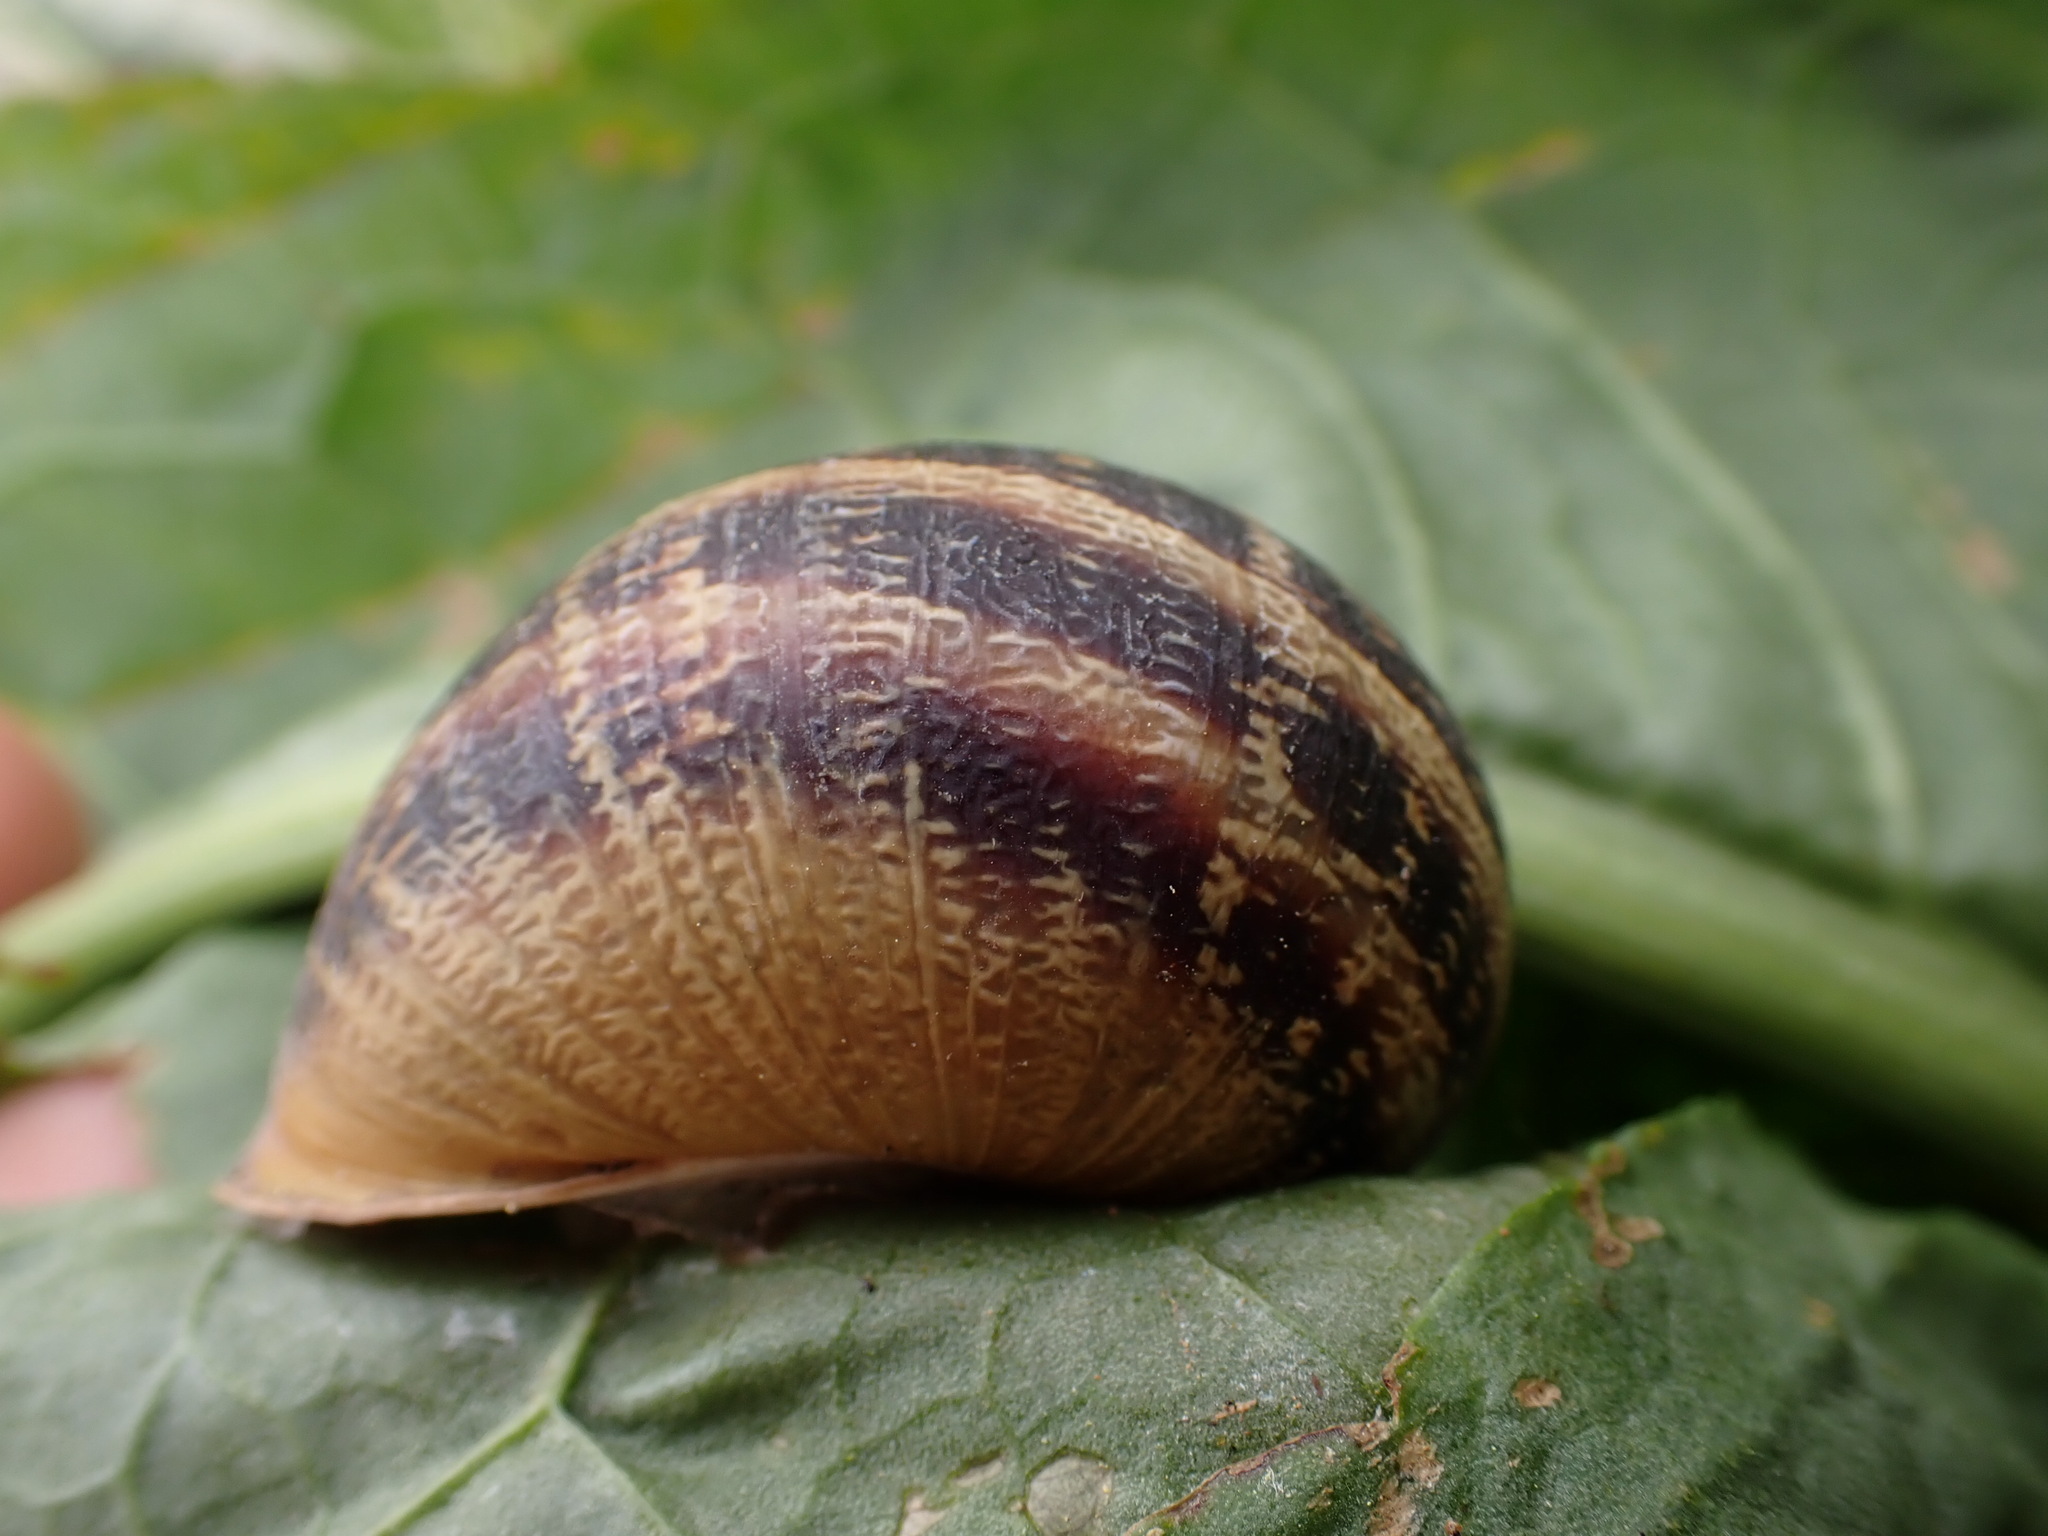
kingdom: Animalia
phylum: Mollusca
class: Gastropoda
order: Stylommatophora
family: Helicidae
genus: Cornu
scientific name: Cornu aspersum
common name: Brown garden snail
